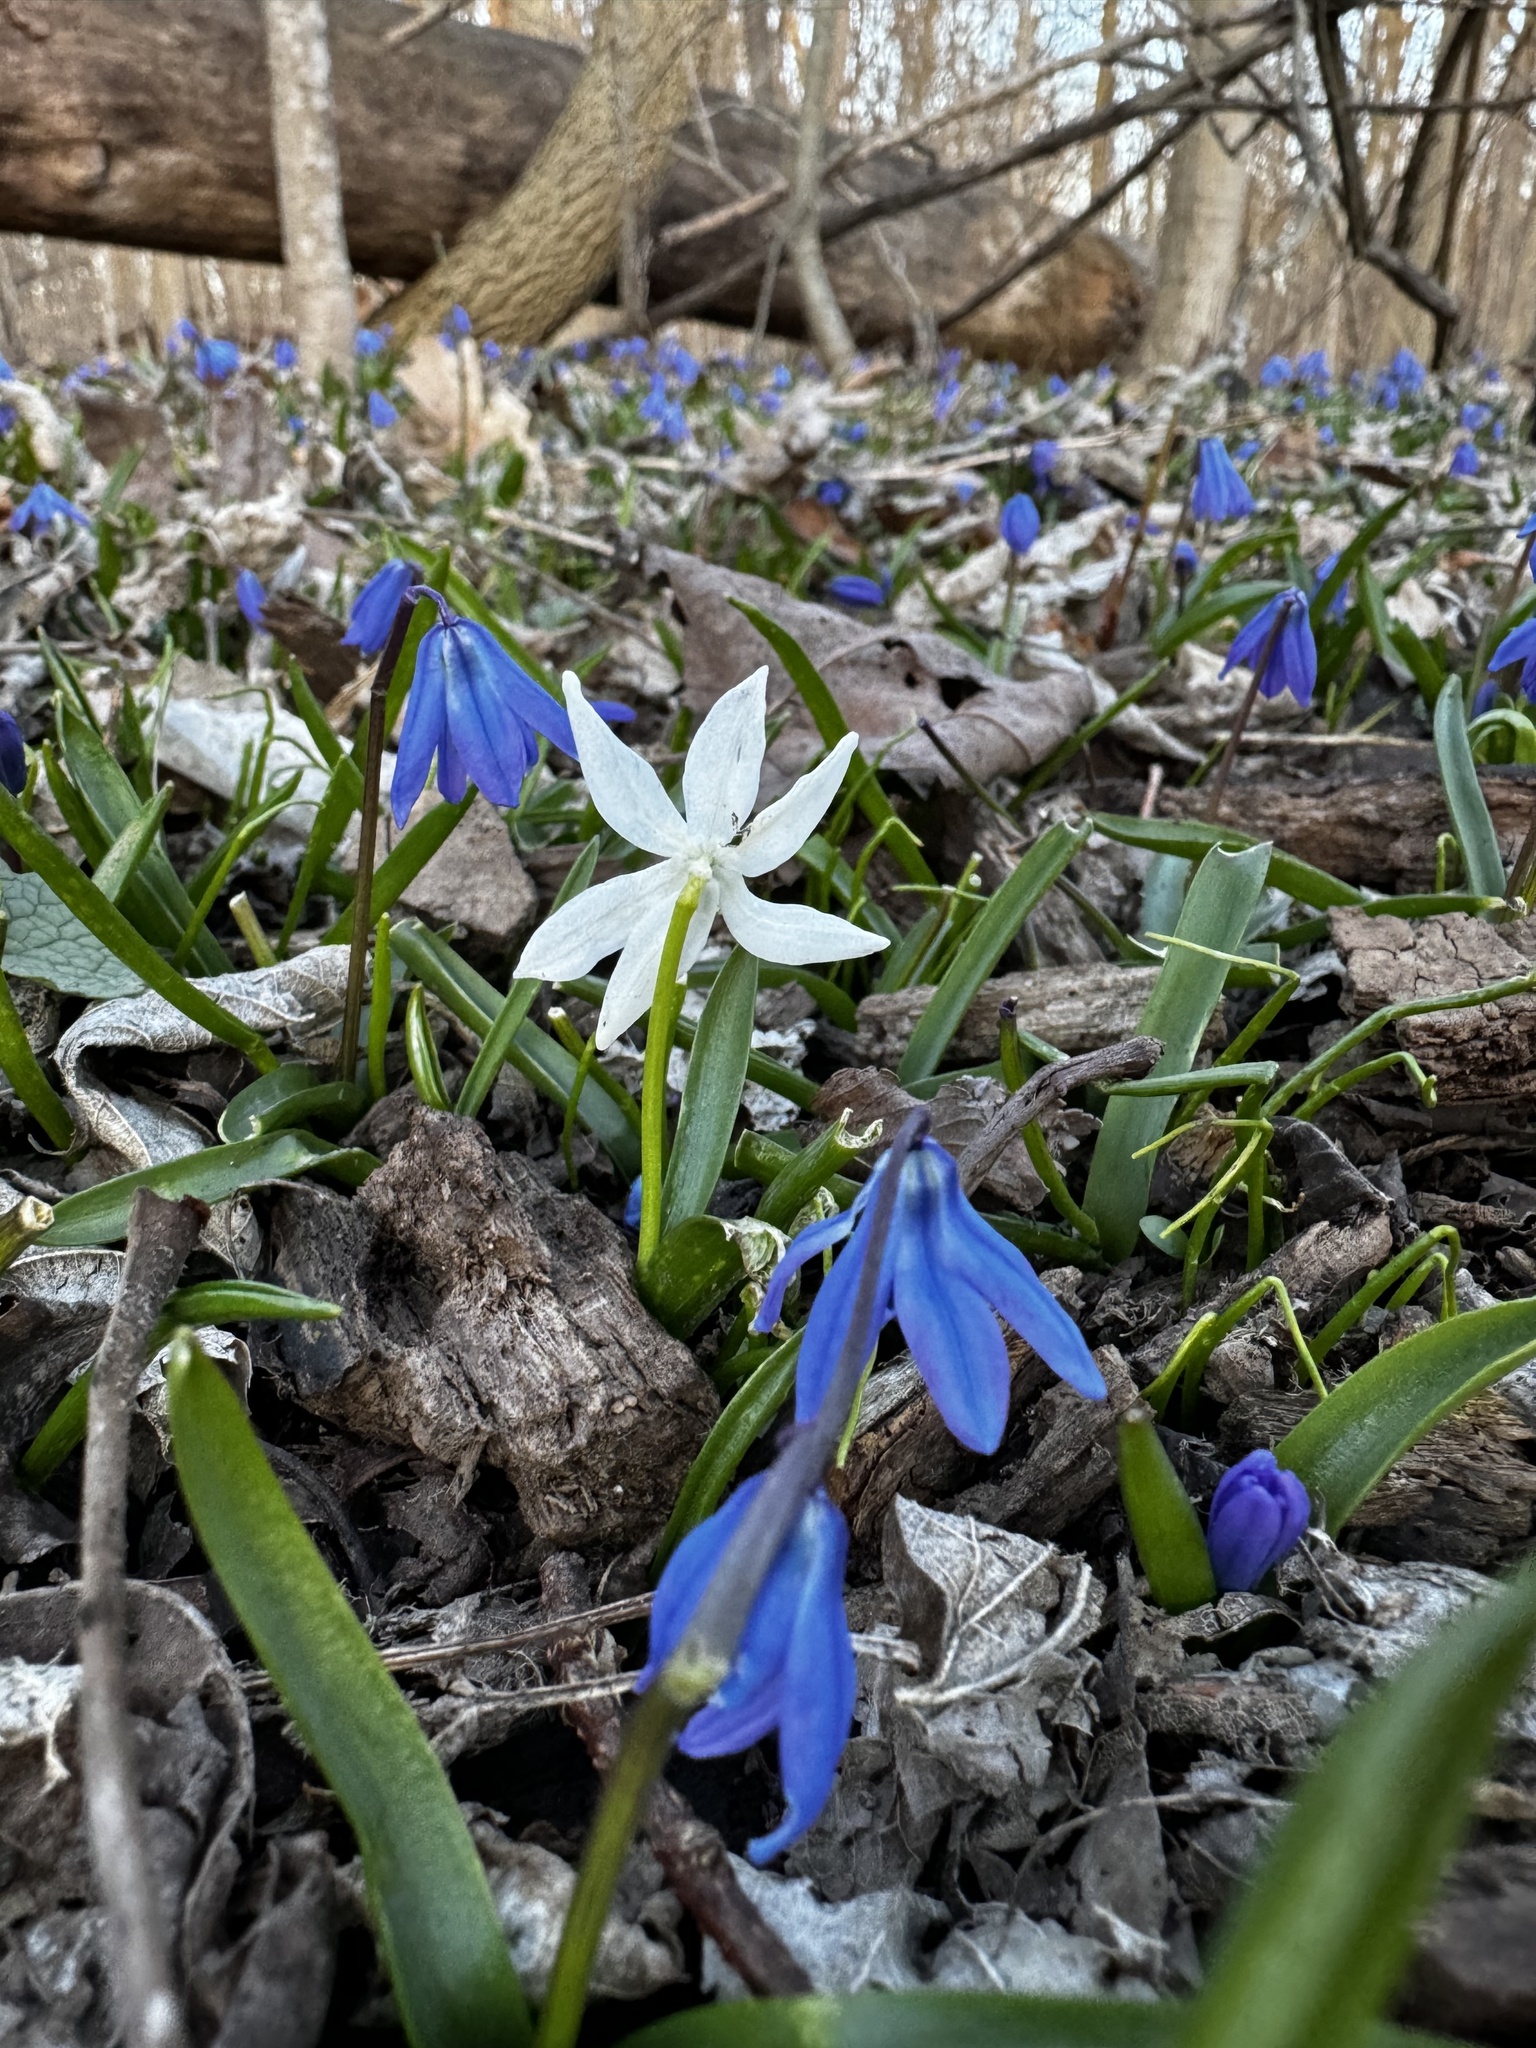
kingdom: Plantae
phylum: Tracheophyta
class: Liliopsida
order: Asparagales
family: Asparagaceae
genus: Scilla
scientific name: Scilla siberica
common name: Siberian squill
